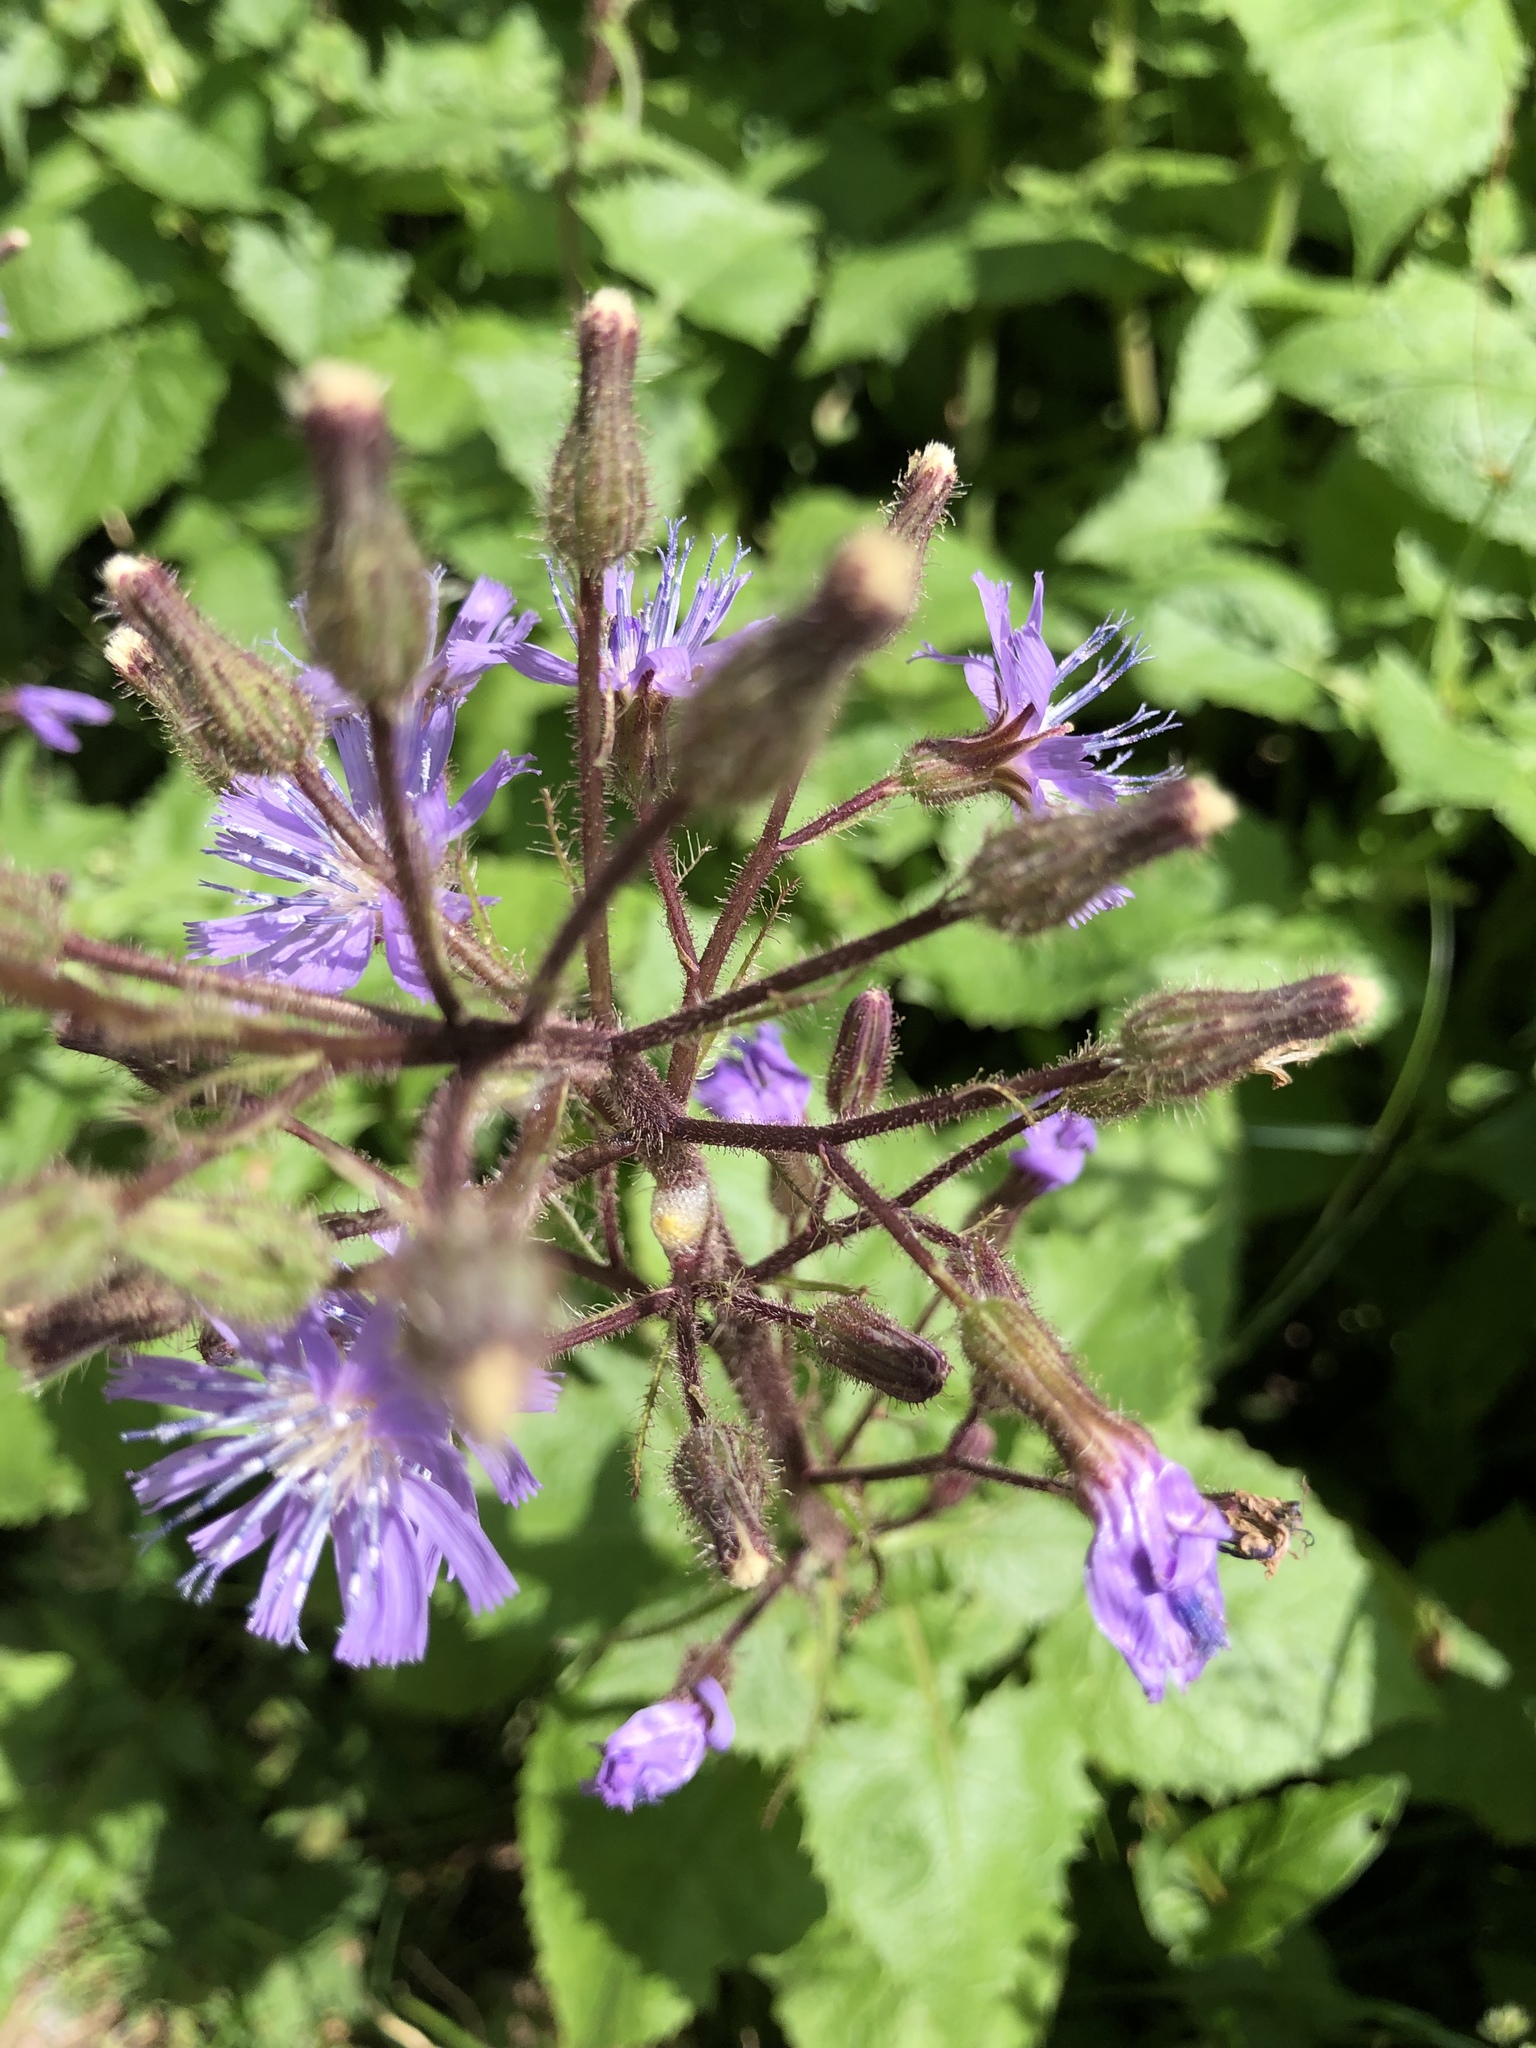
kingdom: Plantae
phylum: Tracheophyta
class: Magnoliopsida
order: Asterales
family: Asteraceae
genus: Cicerbita
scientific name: Cicerbita alpina
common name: Alpine blue-sow-thistle
